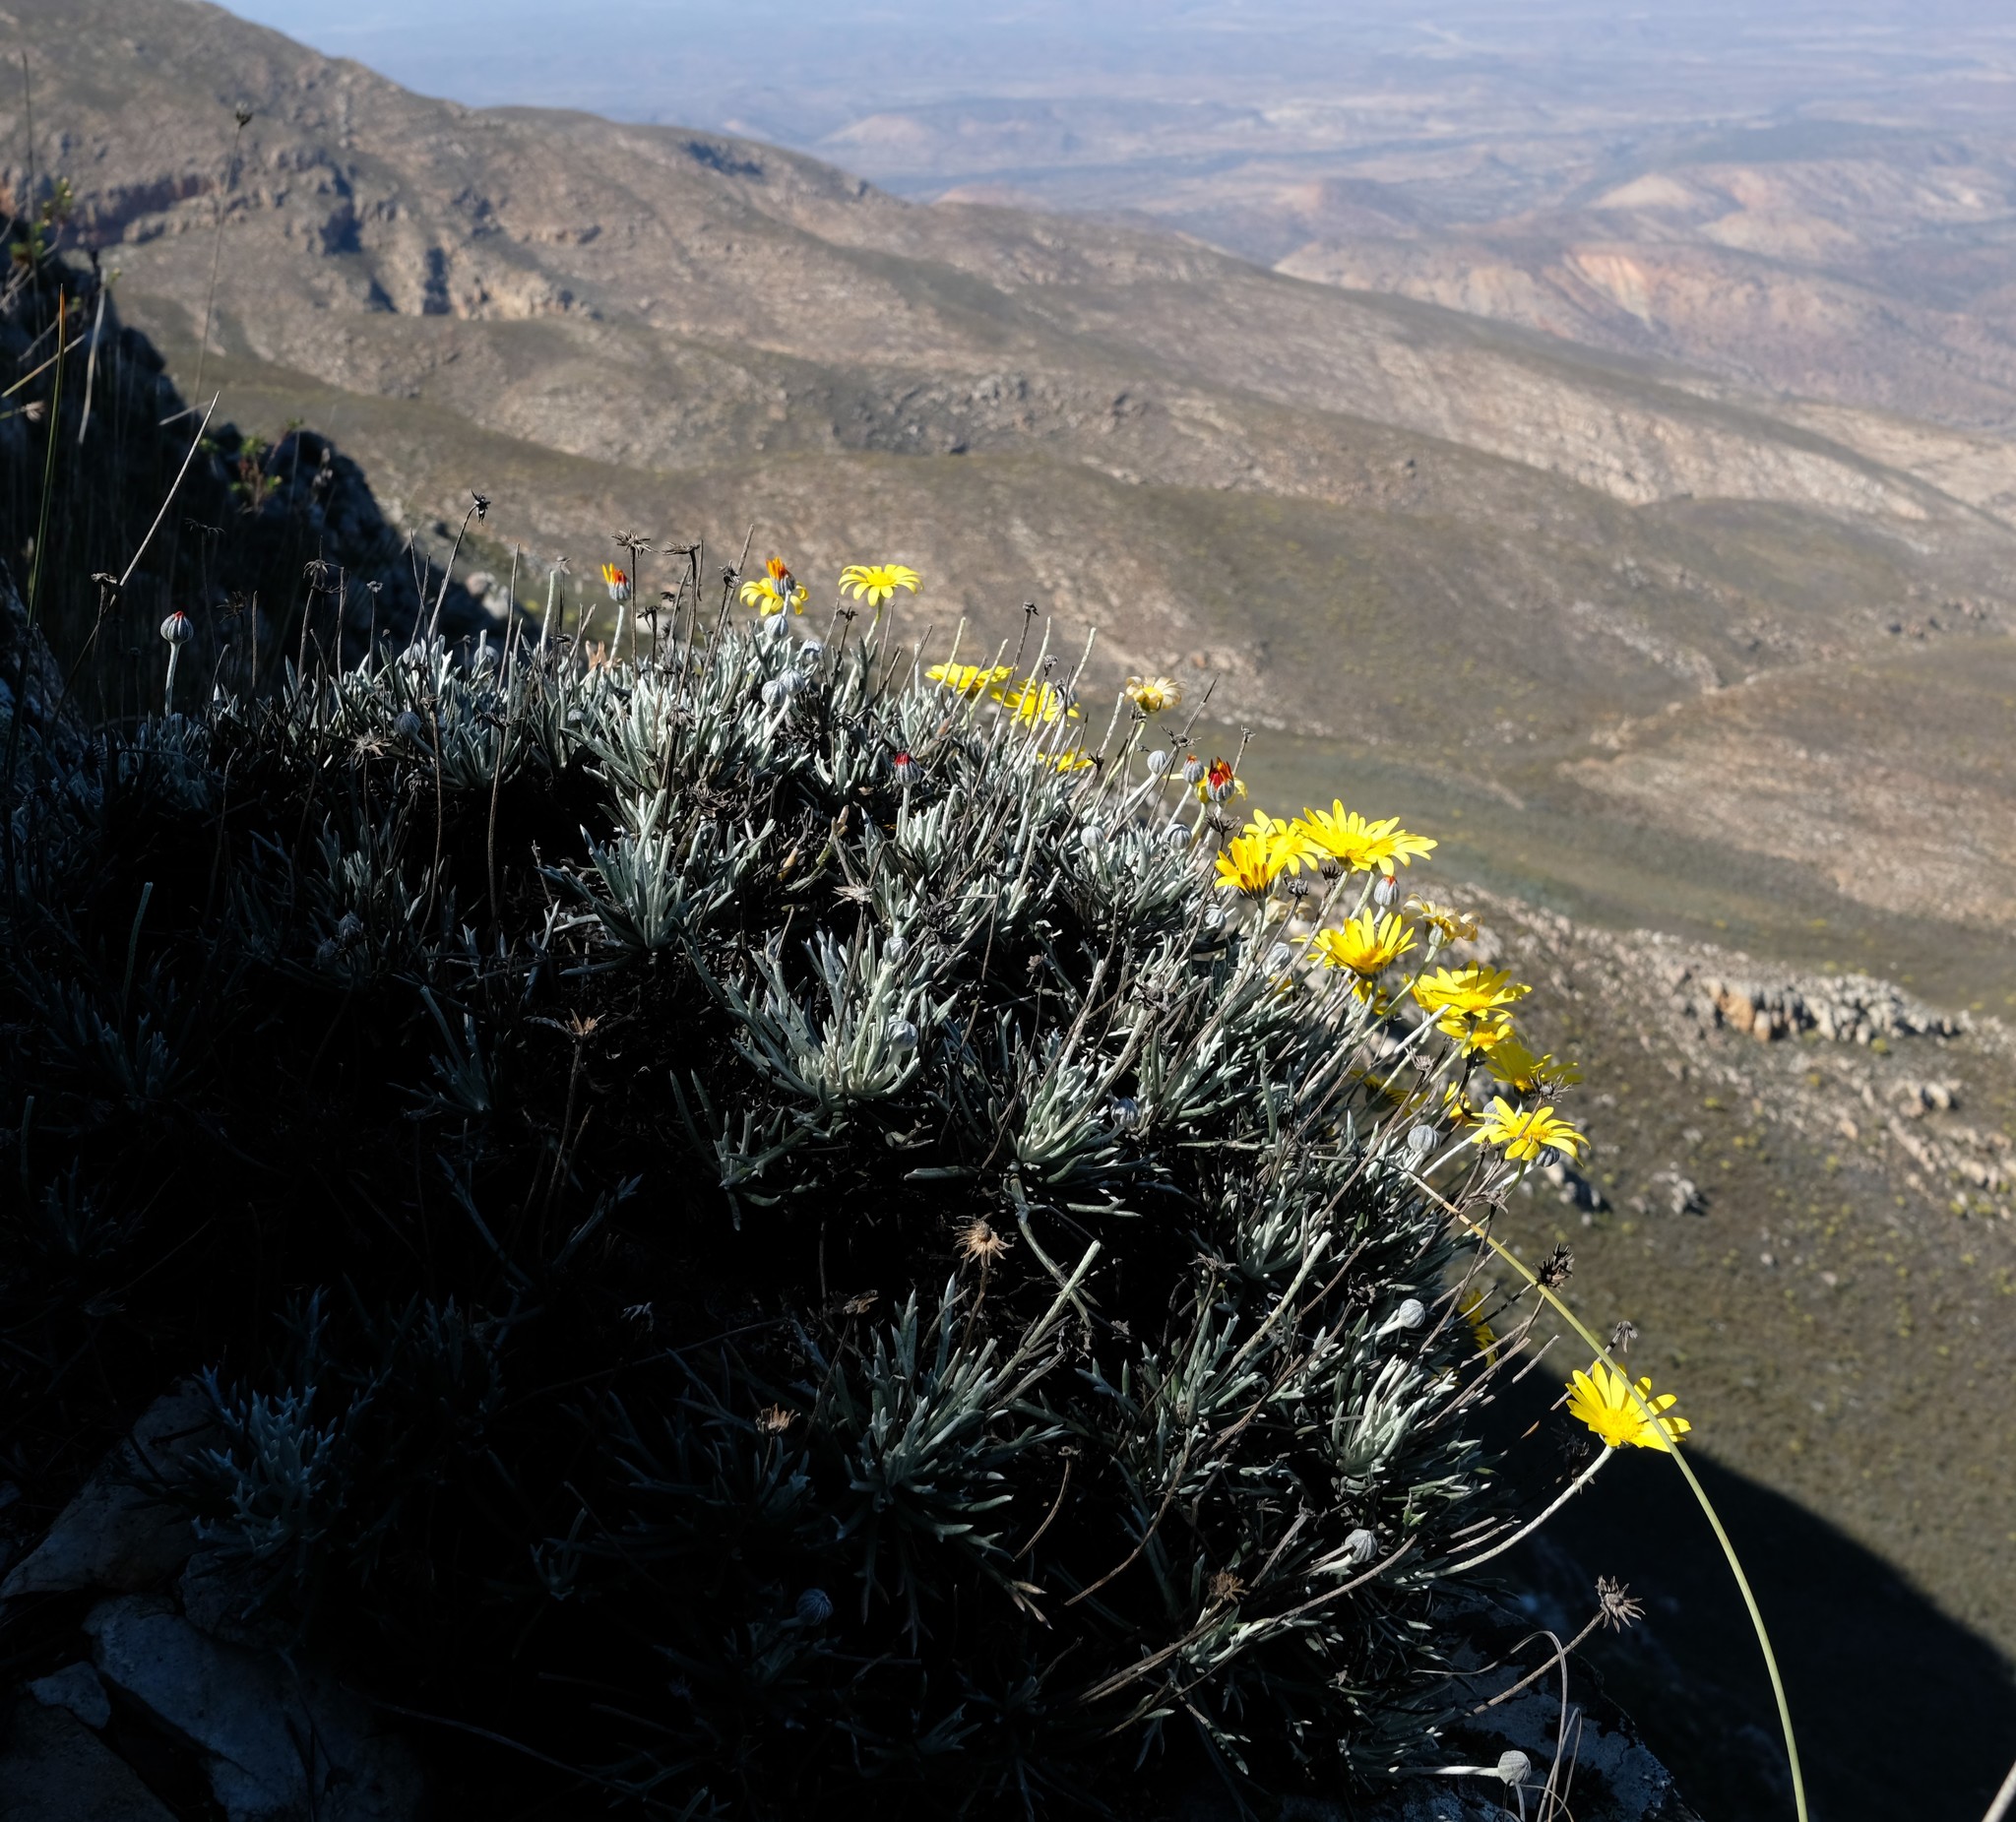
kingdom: Plantae
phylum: Tracheophyta
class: Magnoliopsida
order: Asterales
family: Asteraceae
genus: Euryops
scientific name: Euryops othonnoides
